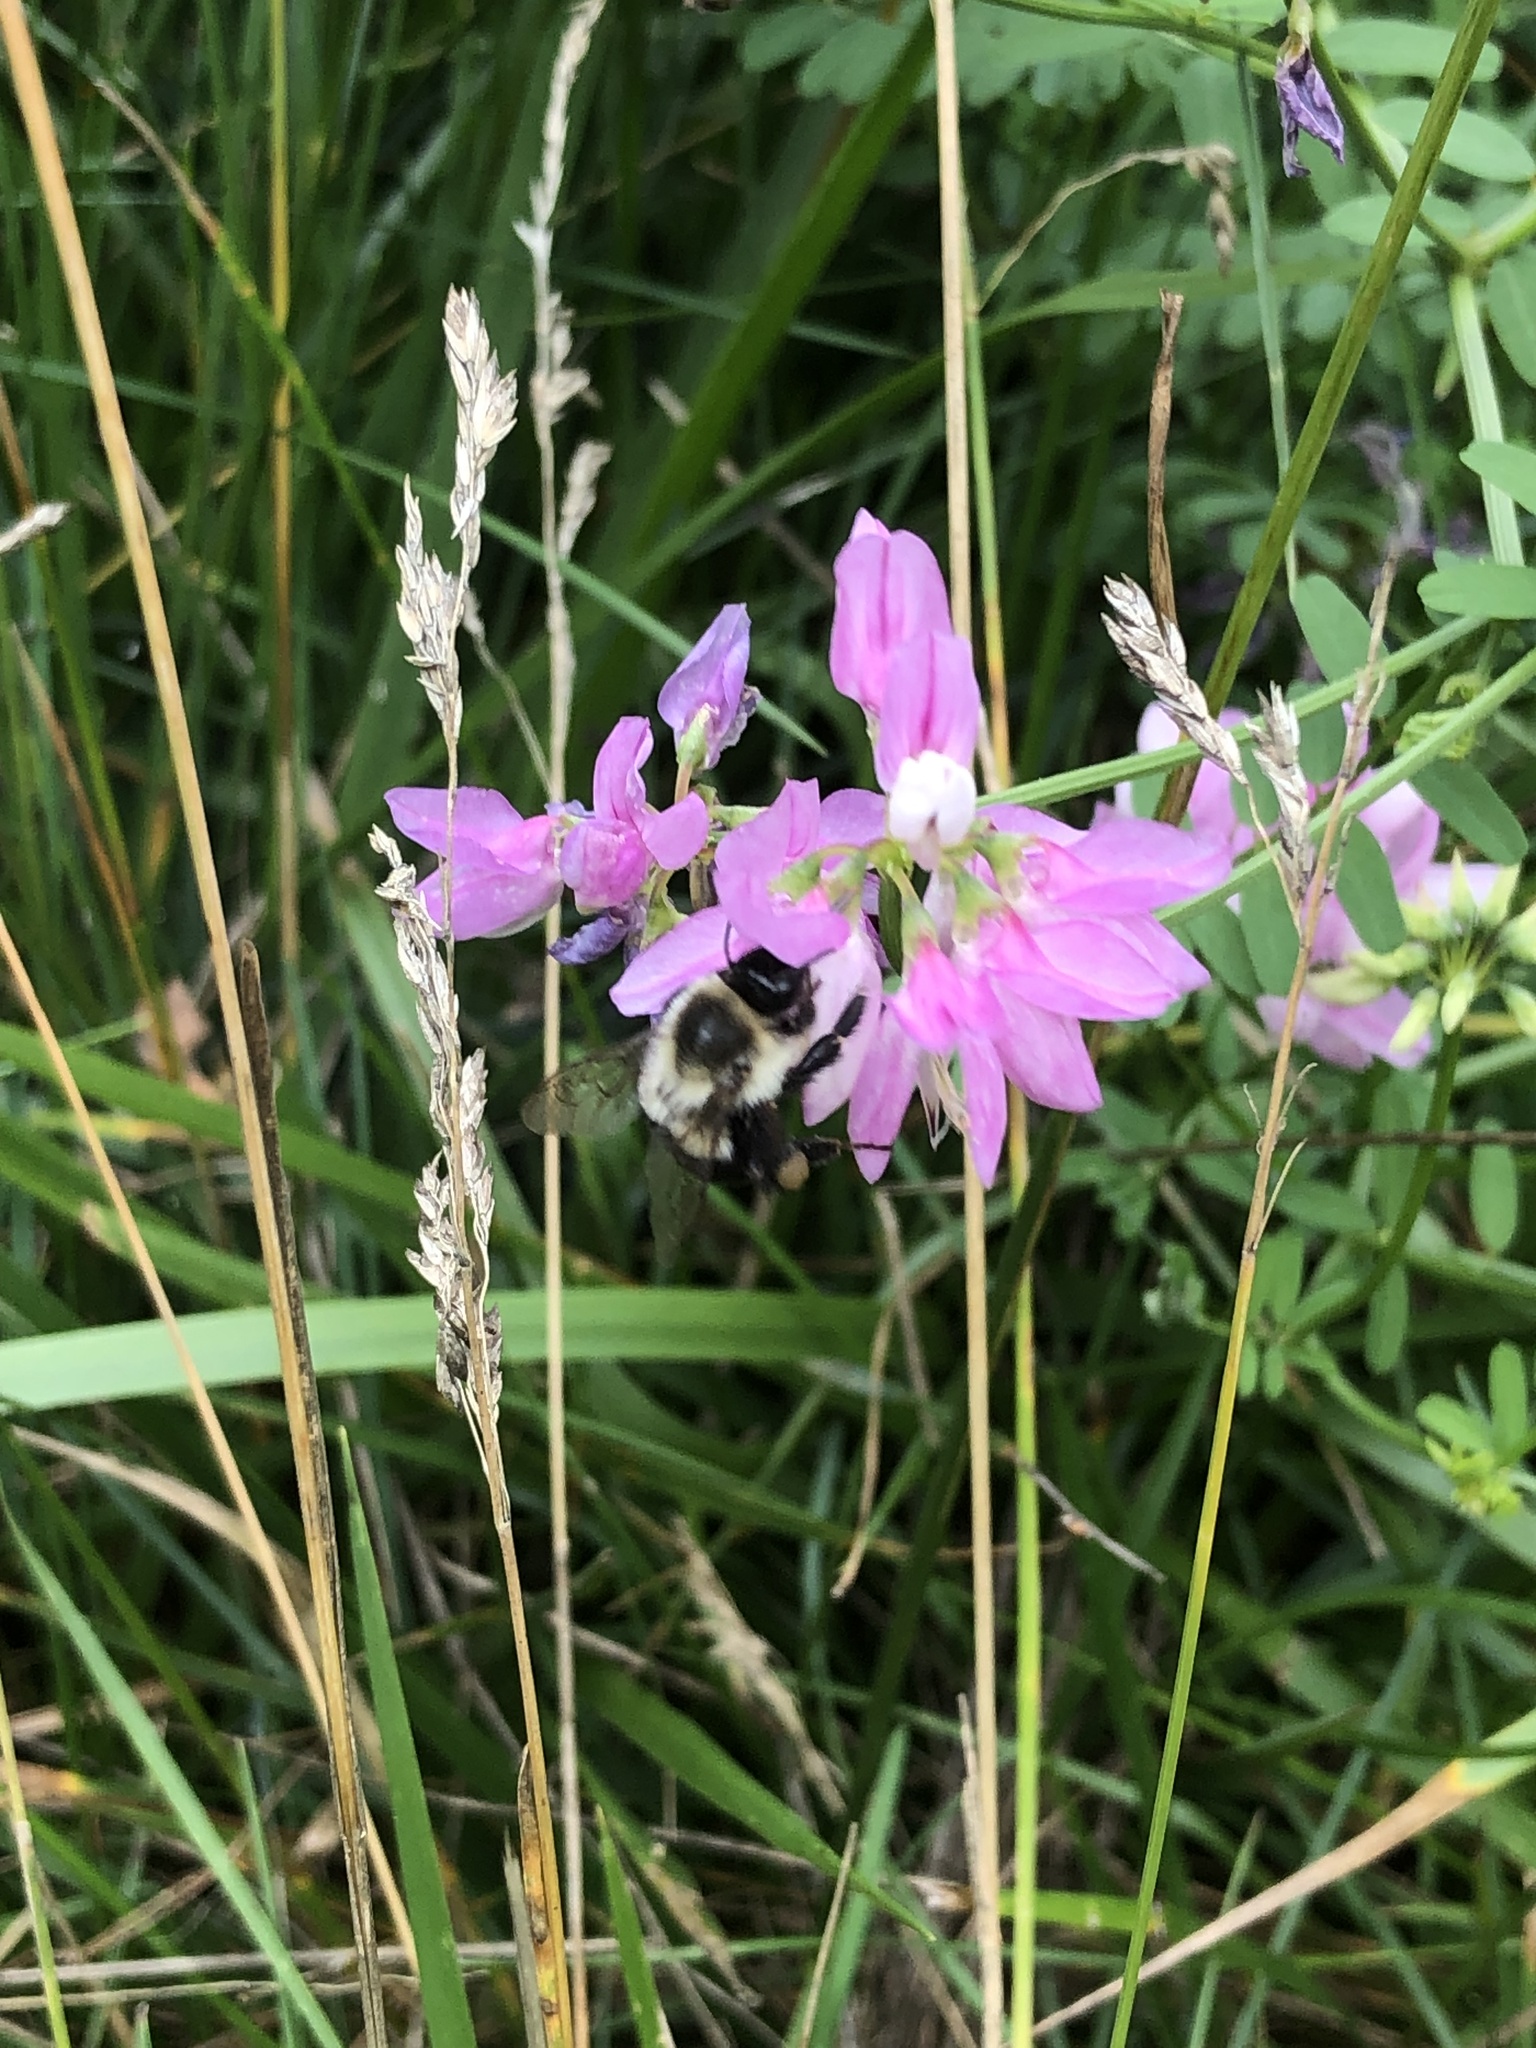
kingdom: Animalia
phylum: Arthropoda
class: Insecta
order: Hymenoptera
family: Apidae
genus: Bombus
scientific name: Bombus impatiens
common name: Common eastern bumble bee
